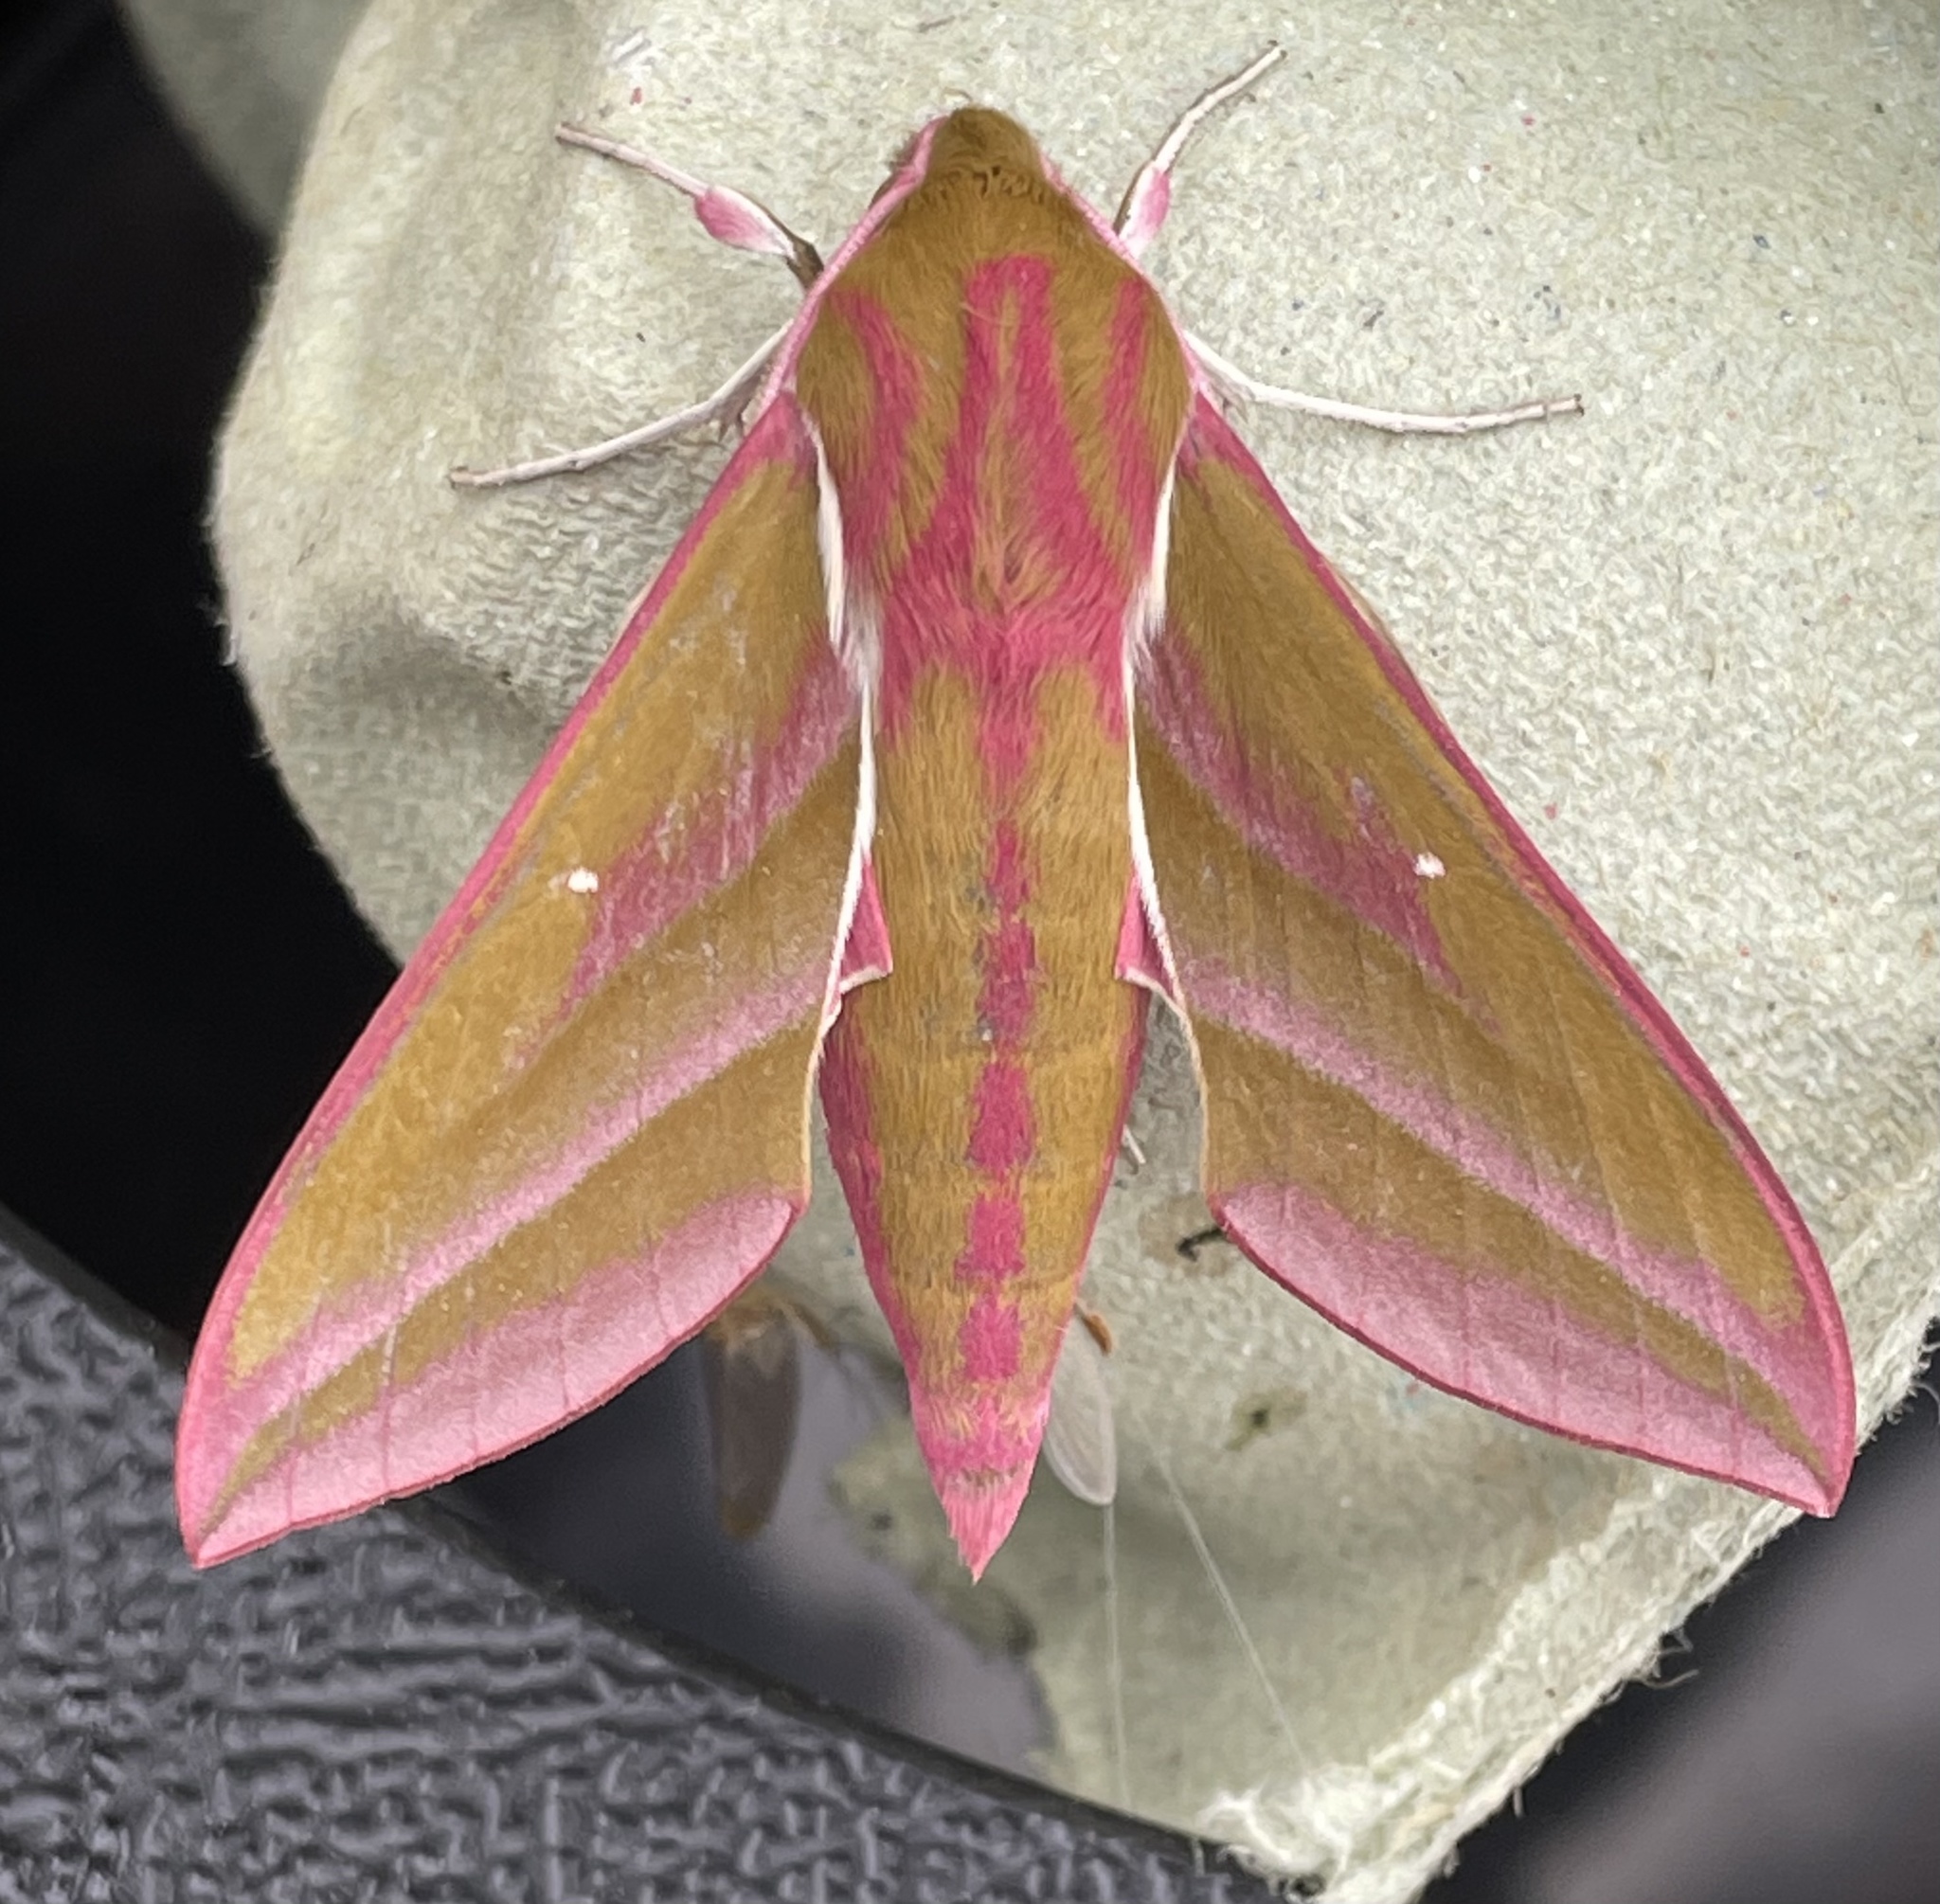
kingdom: Animalia
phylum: Arthropoda
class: Insecta
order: Lepidoptera
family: Sphingidae
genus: Deilephila
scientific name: Deilephila elpenor
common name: Elephant hawk-moth
